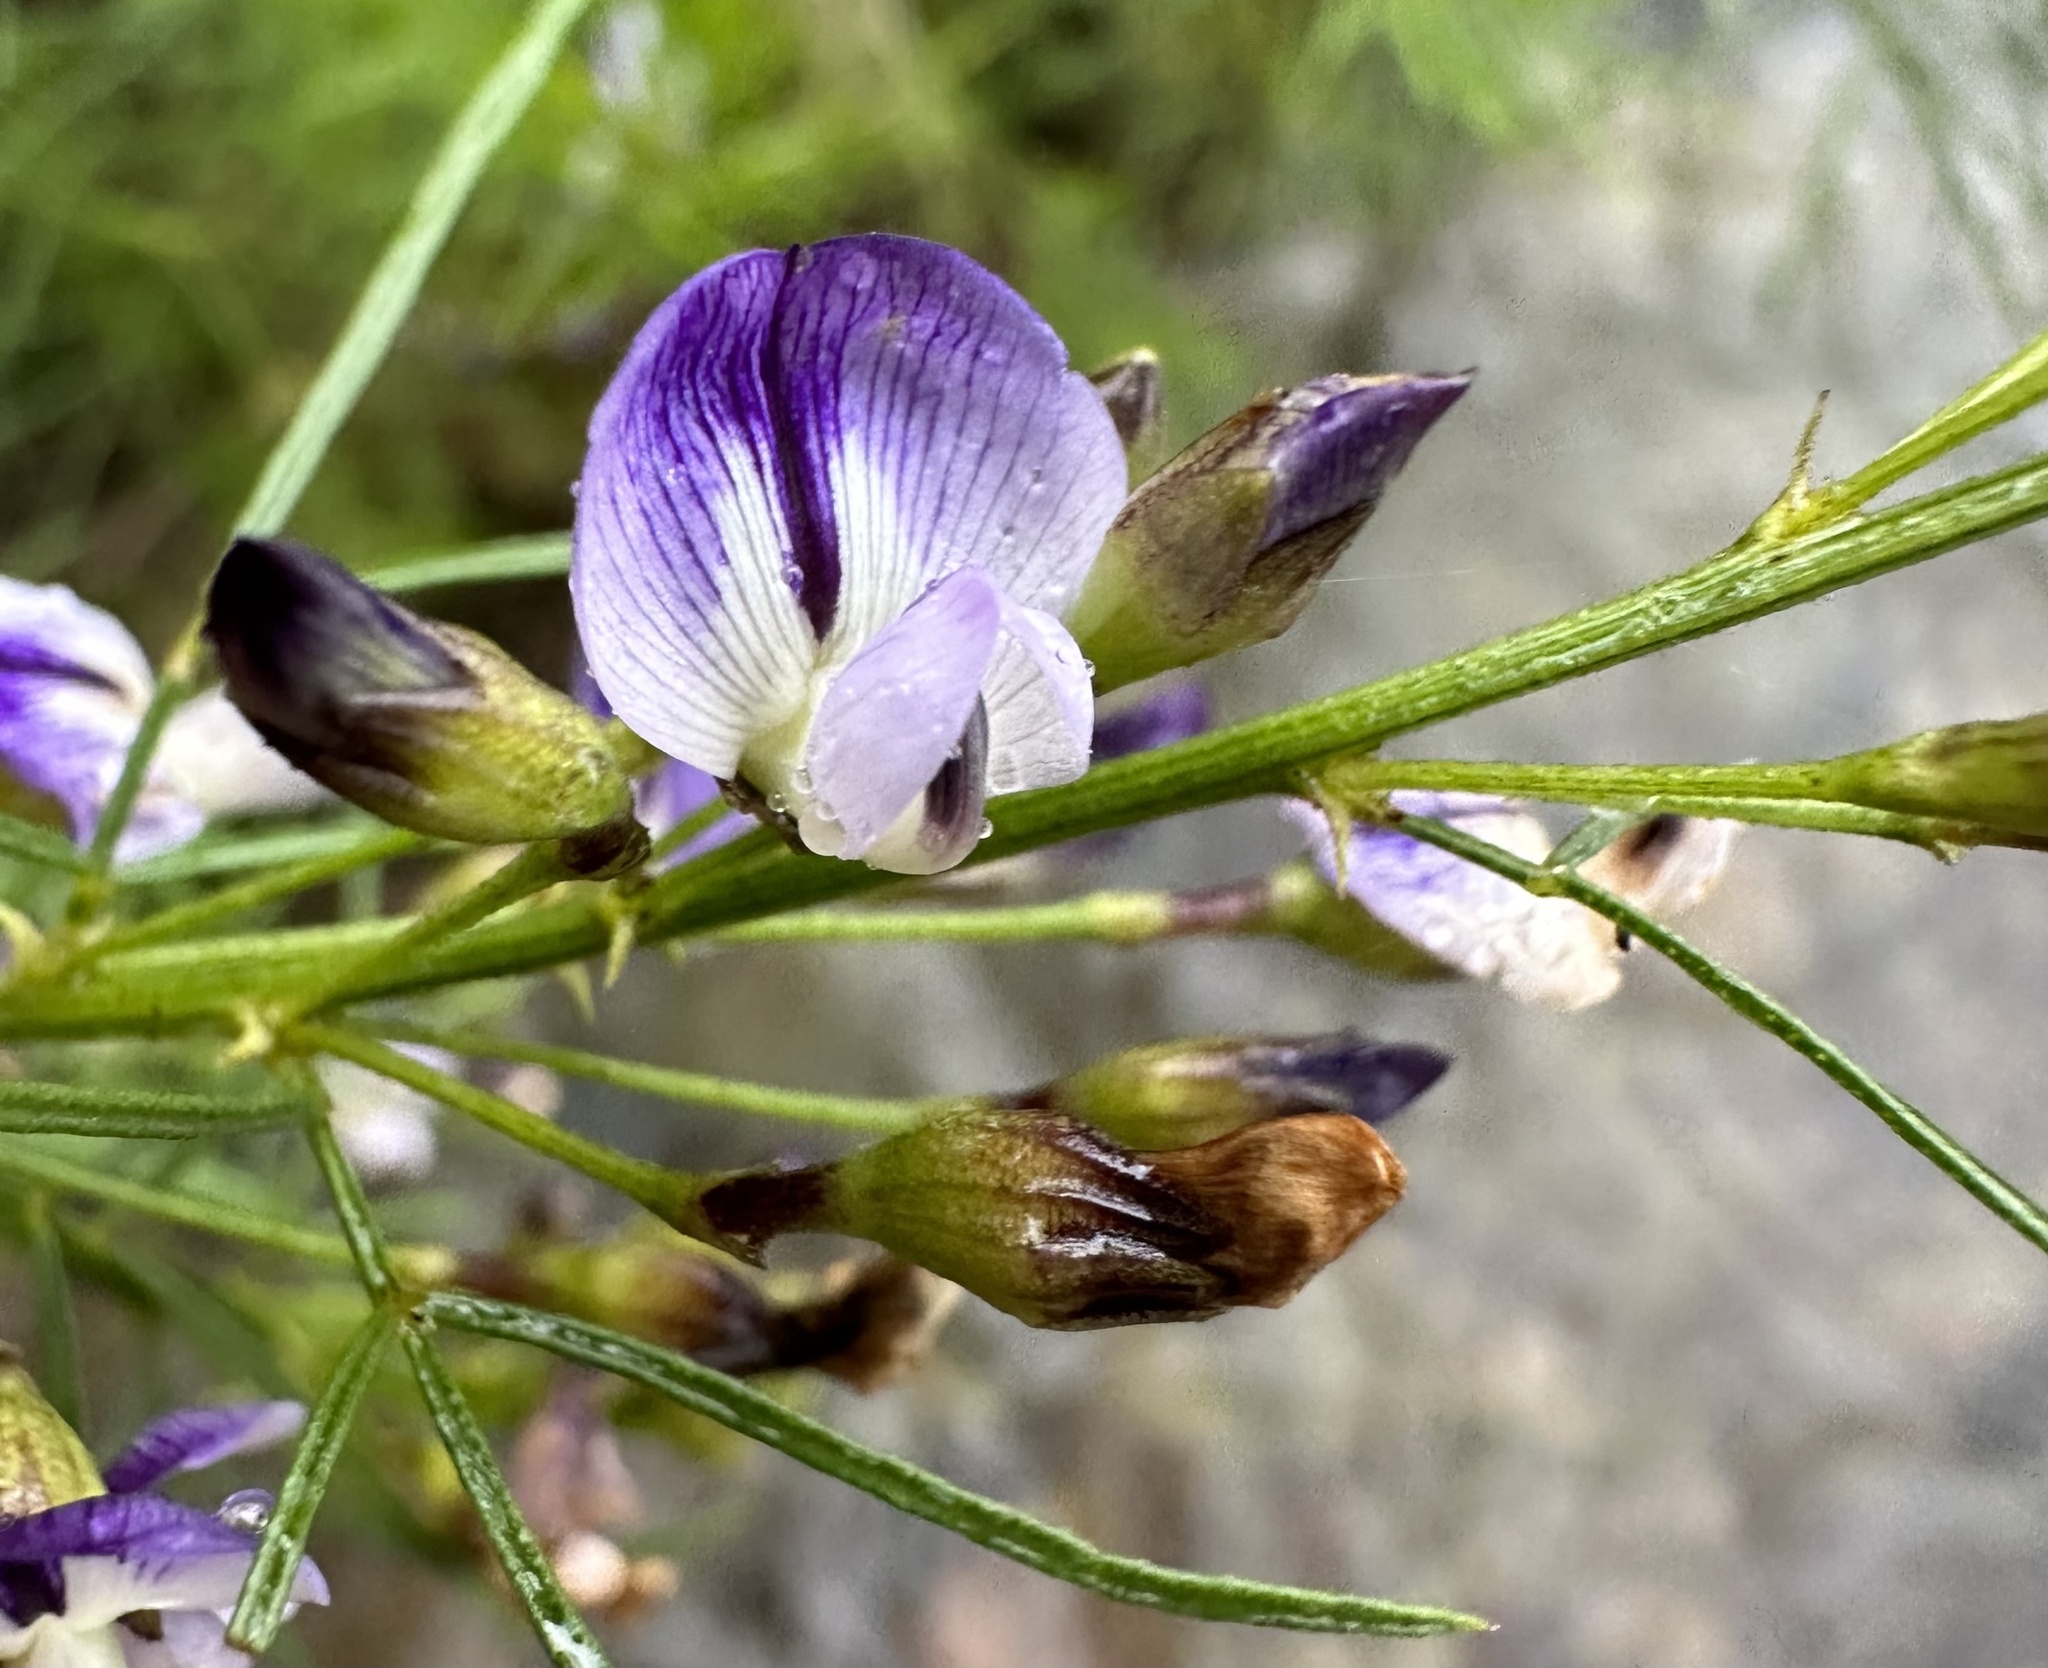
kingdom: Plantae
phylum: Tracheophyta
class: Magnoliopsida
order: Fabales
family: Fabaceae
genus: Psoralea
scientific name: Psoralea rhizotoma
